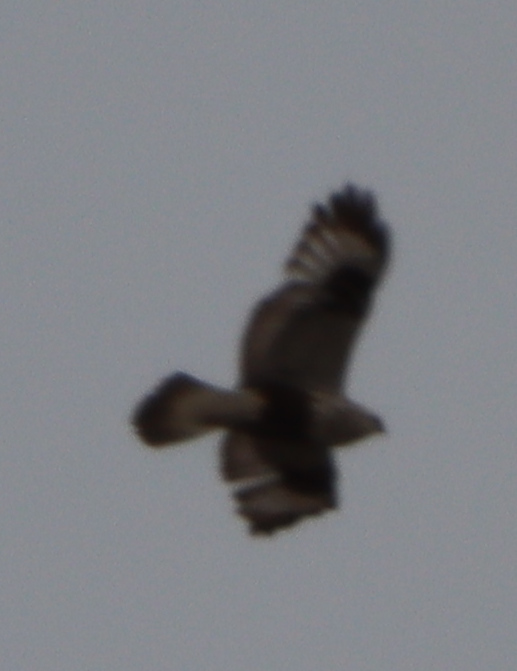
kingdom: Animalia
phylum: Chordata
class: Aves
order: Accipitriformes
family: Accipitridae
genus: Buteo
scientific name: Buteo lagopus
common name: Rough-legged buzzard
